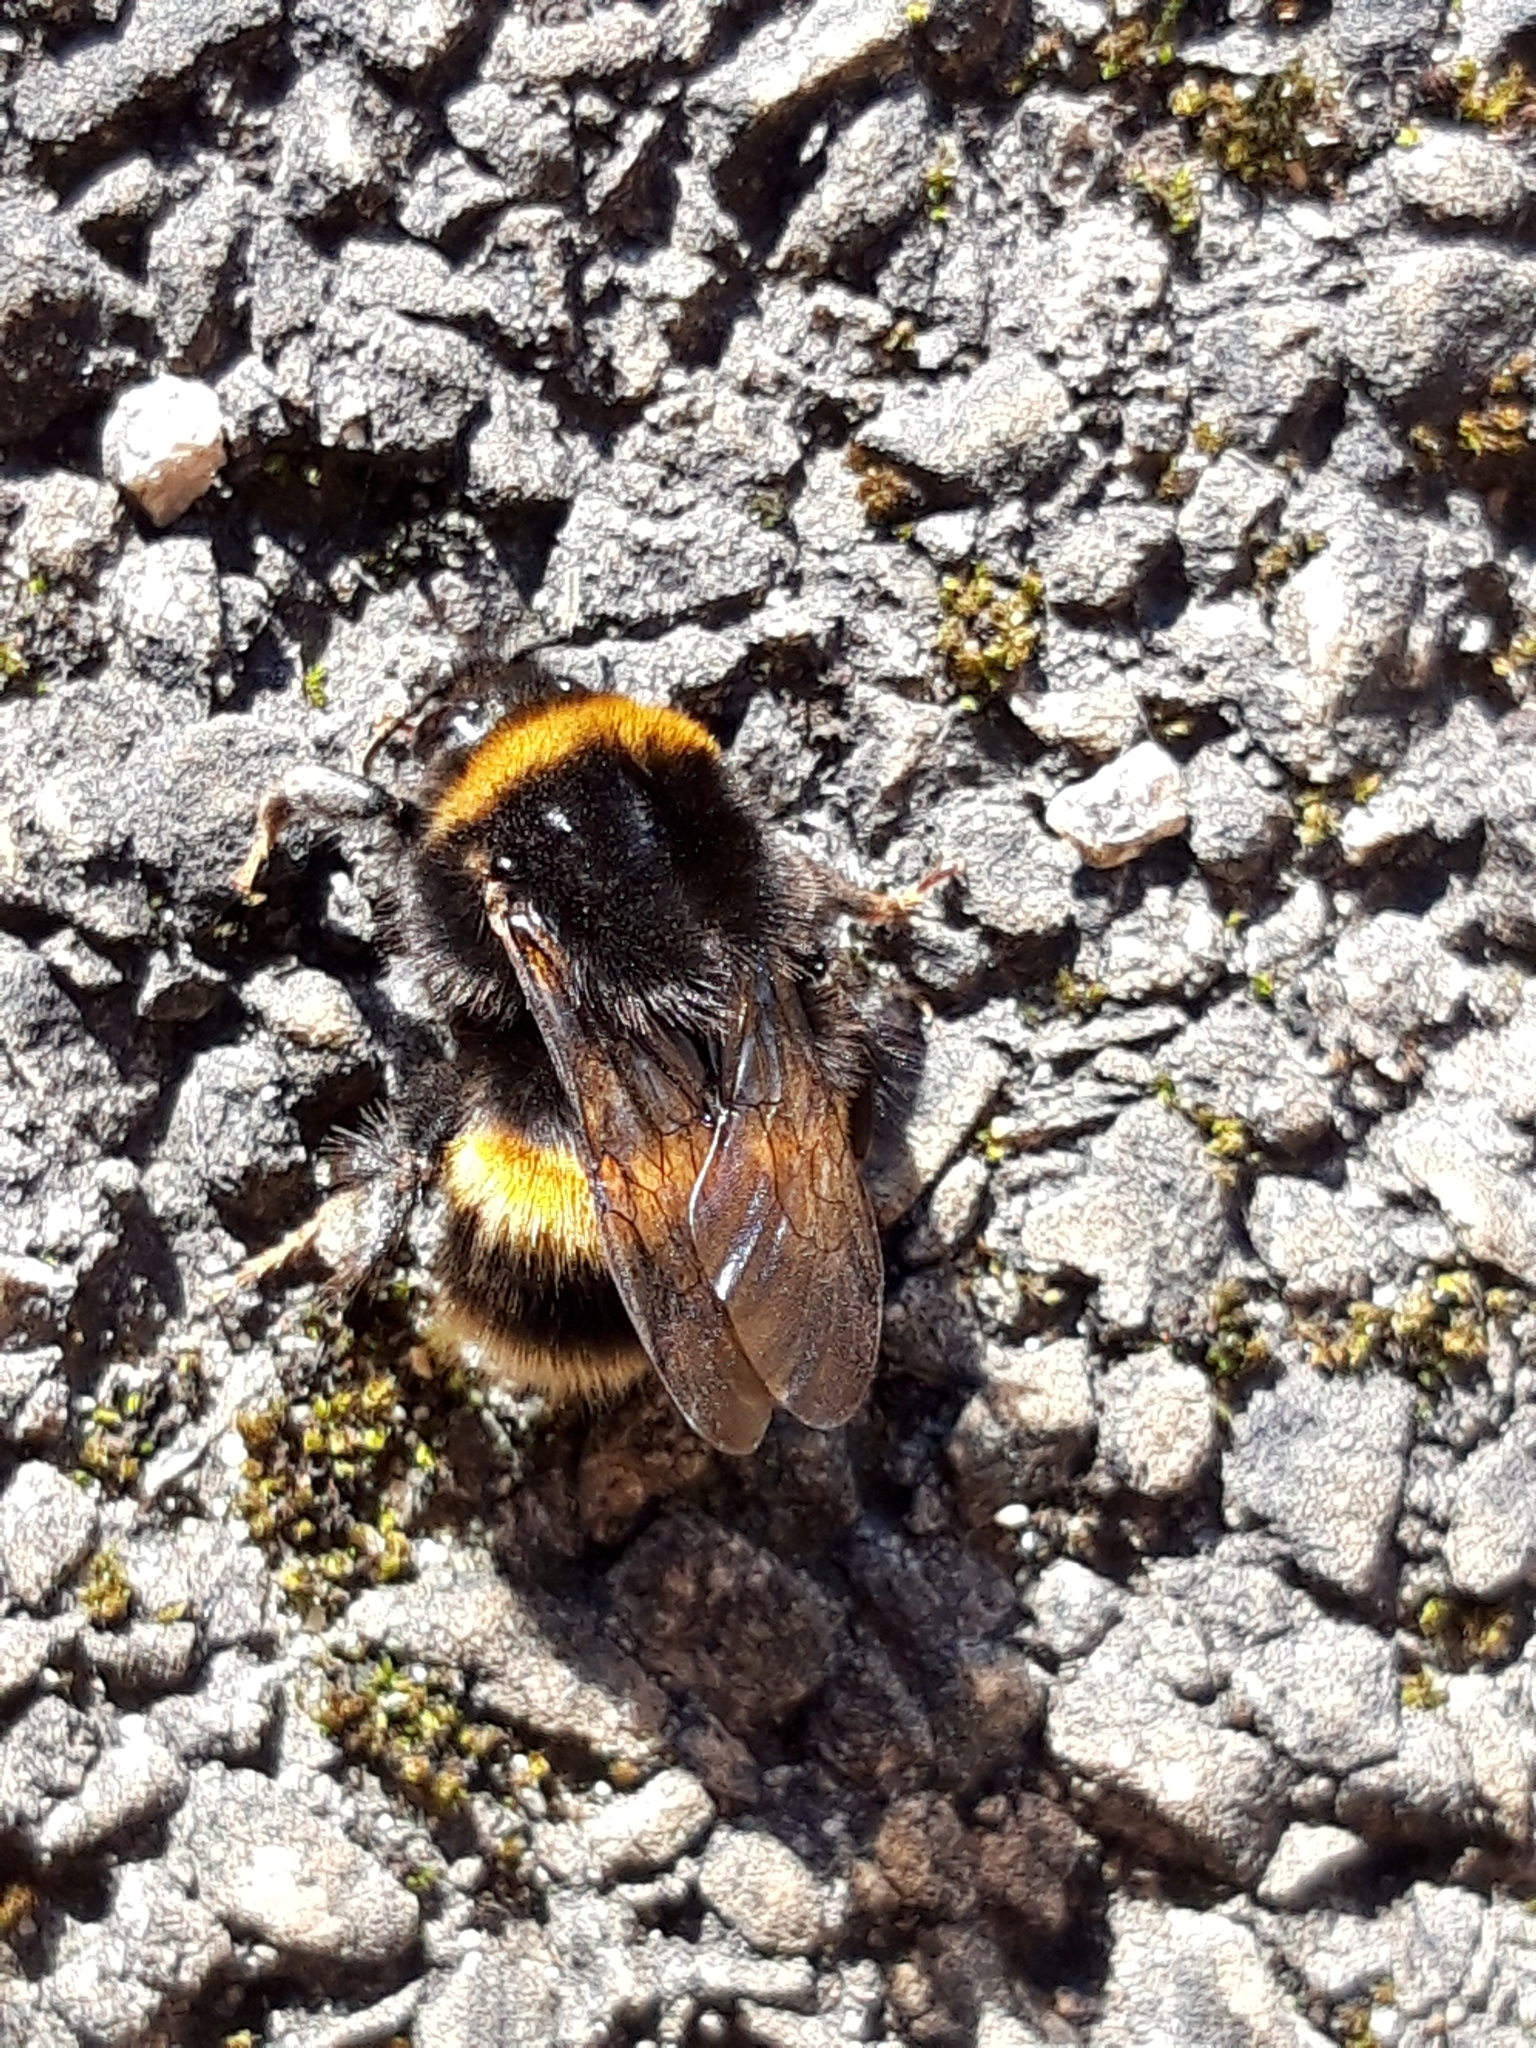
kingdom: Animalia
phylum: Arthropoda
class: Insecta
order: Hymenoptera
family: Apidae
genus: Bombus
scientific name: Bombus terrestris
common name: Buff-tailed bumblebee
